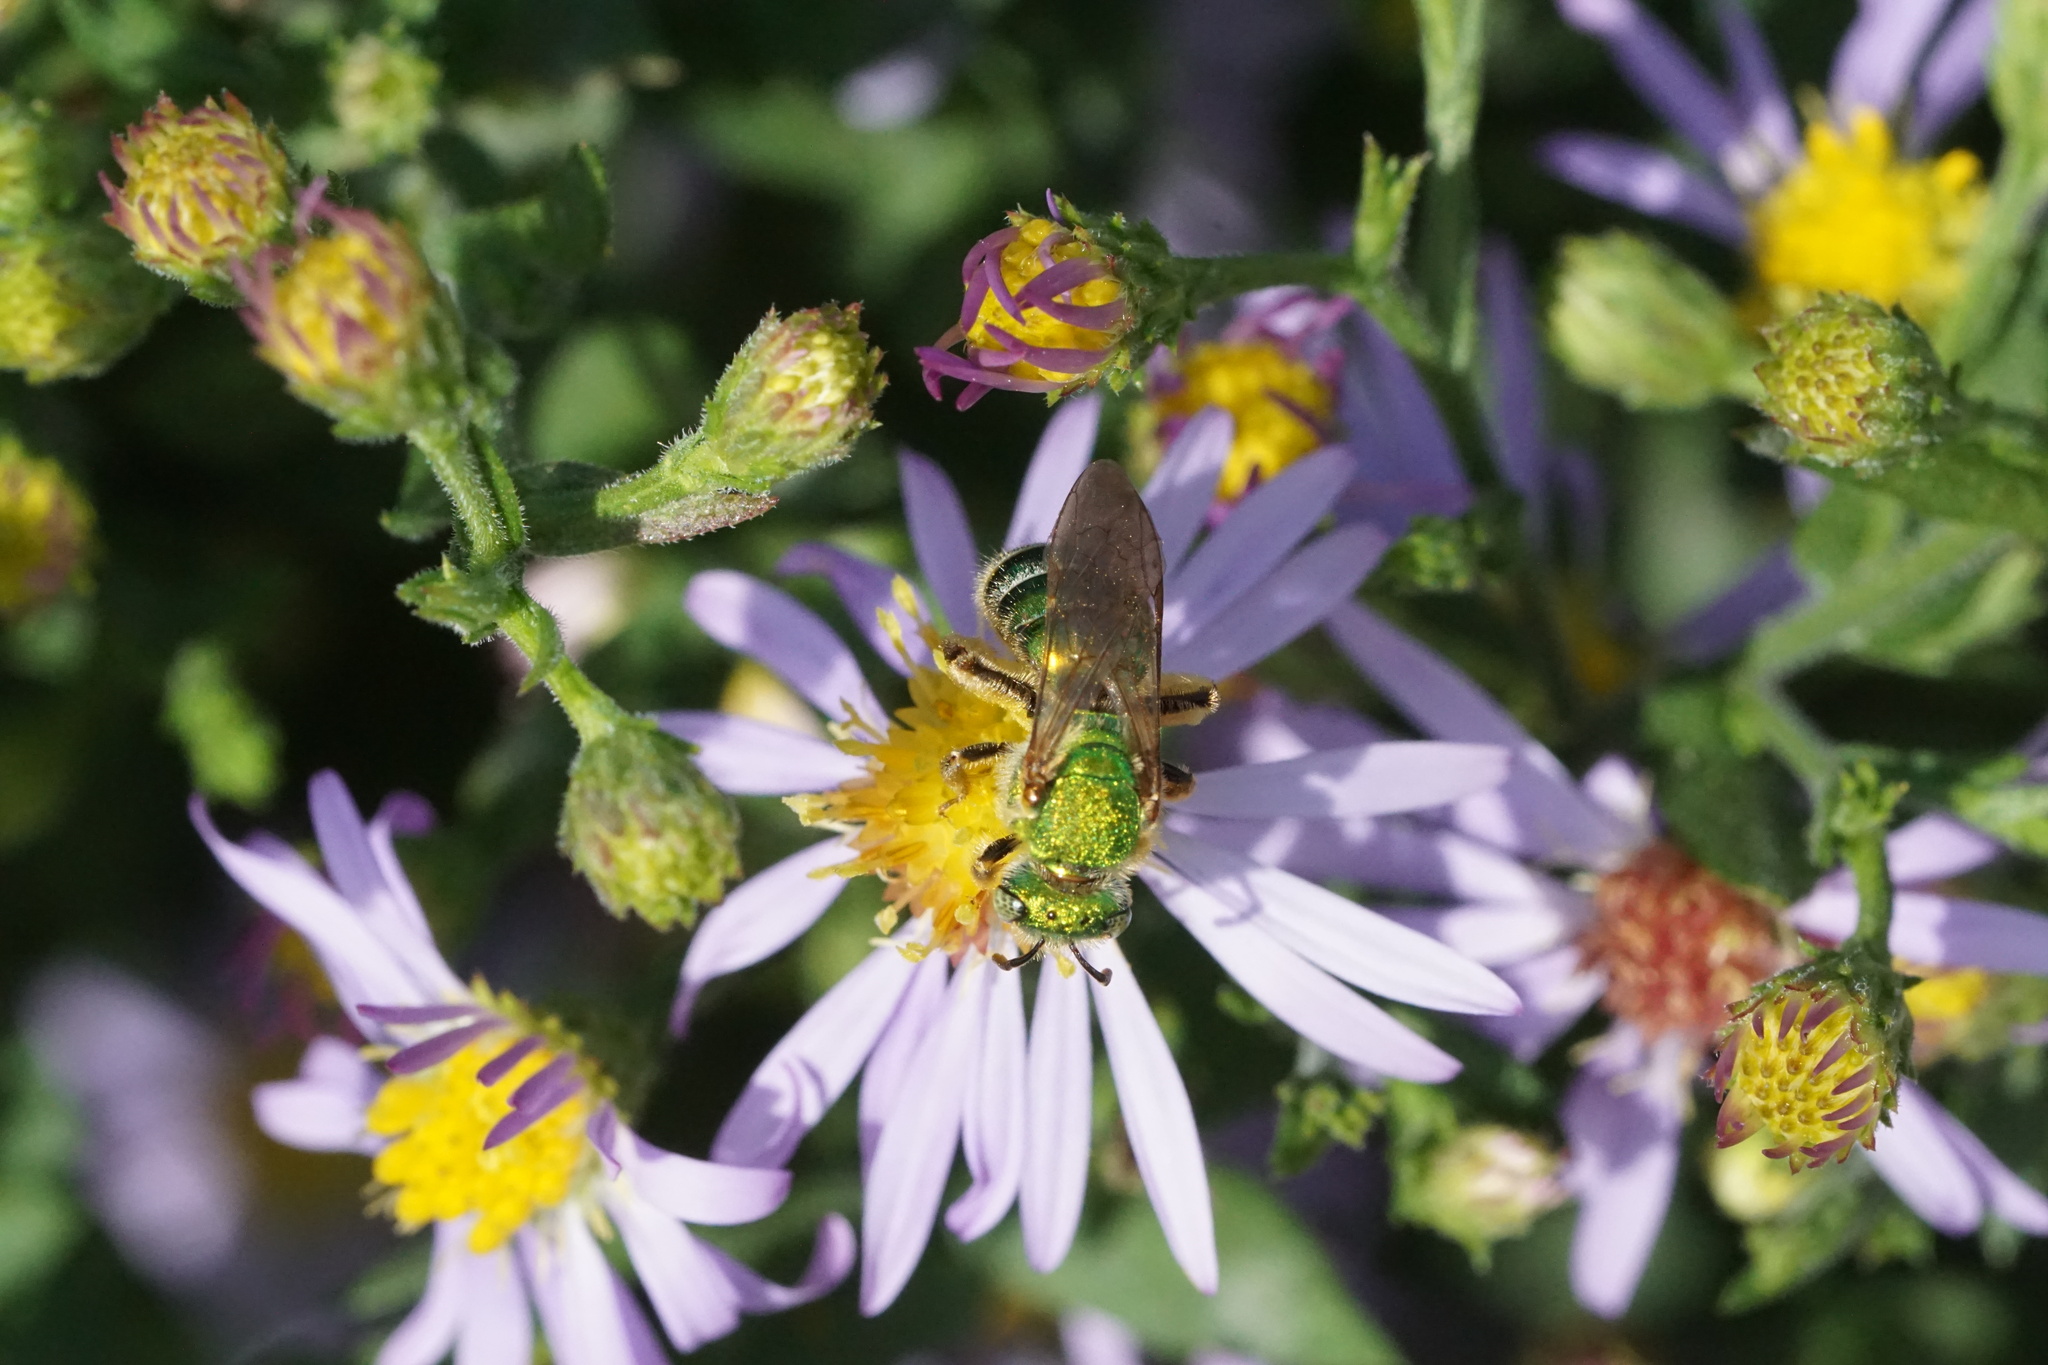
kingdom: Animalia
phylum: Arthropoda
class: Insecta
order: Hymenoptera
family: Halictidae
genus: Agapostemon
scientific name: Agapostemon sericeus
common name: Silky striped sweat bee
